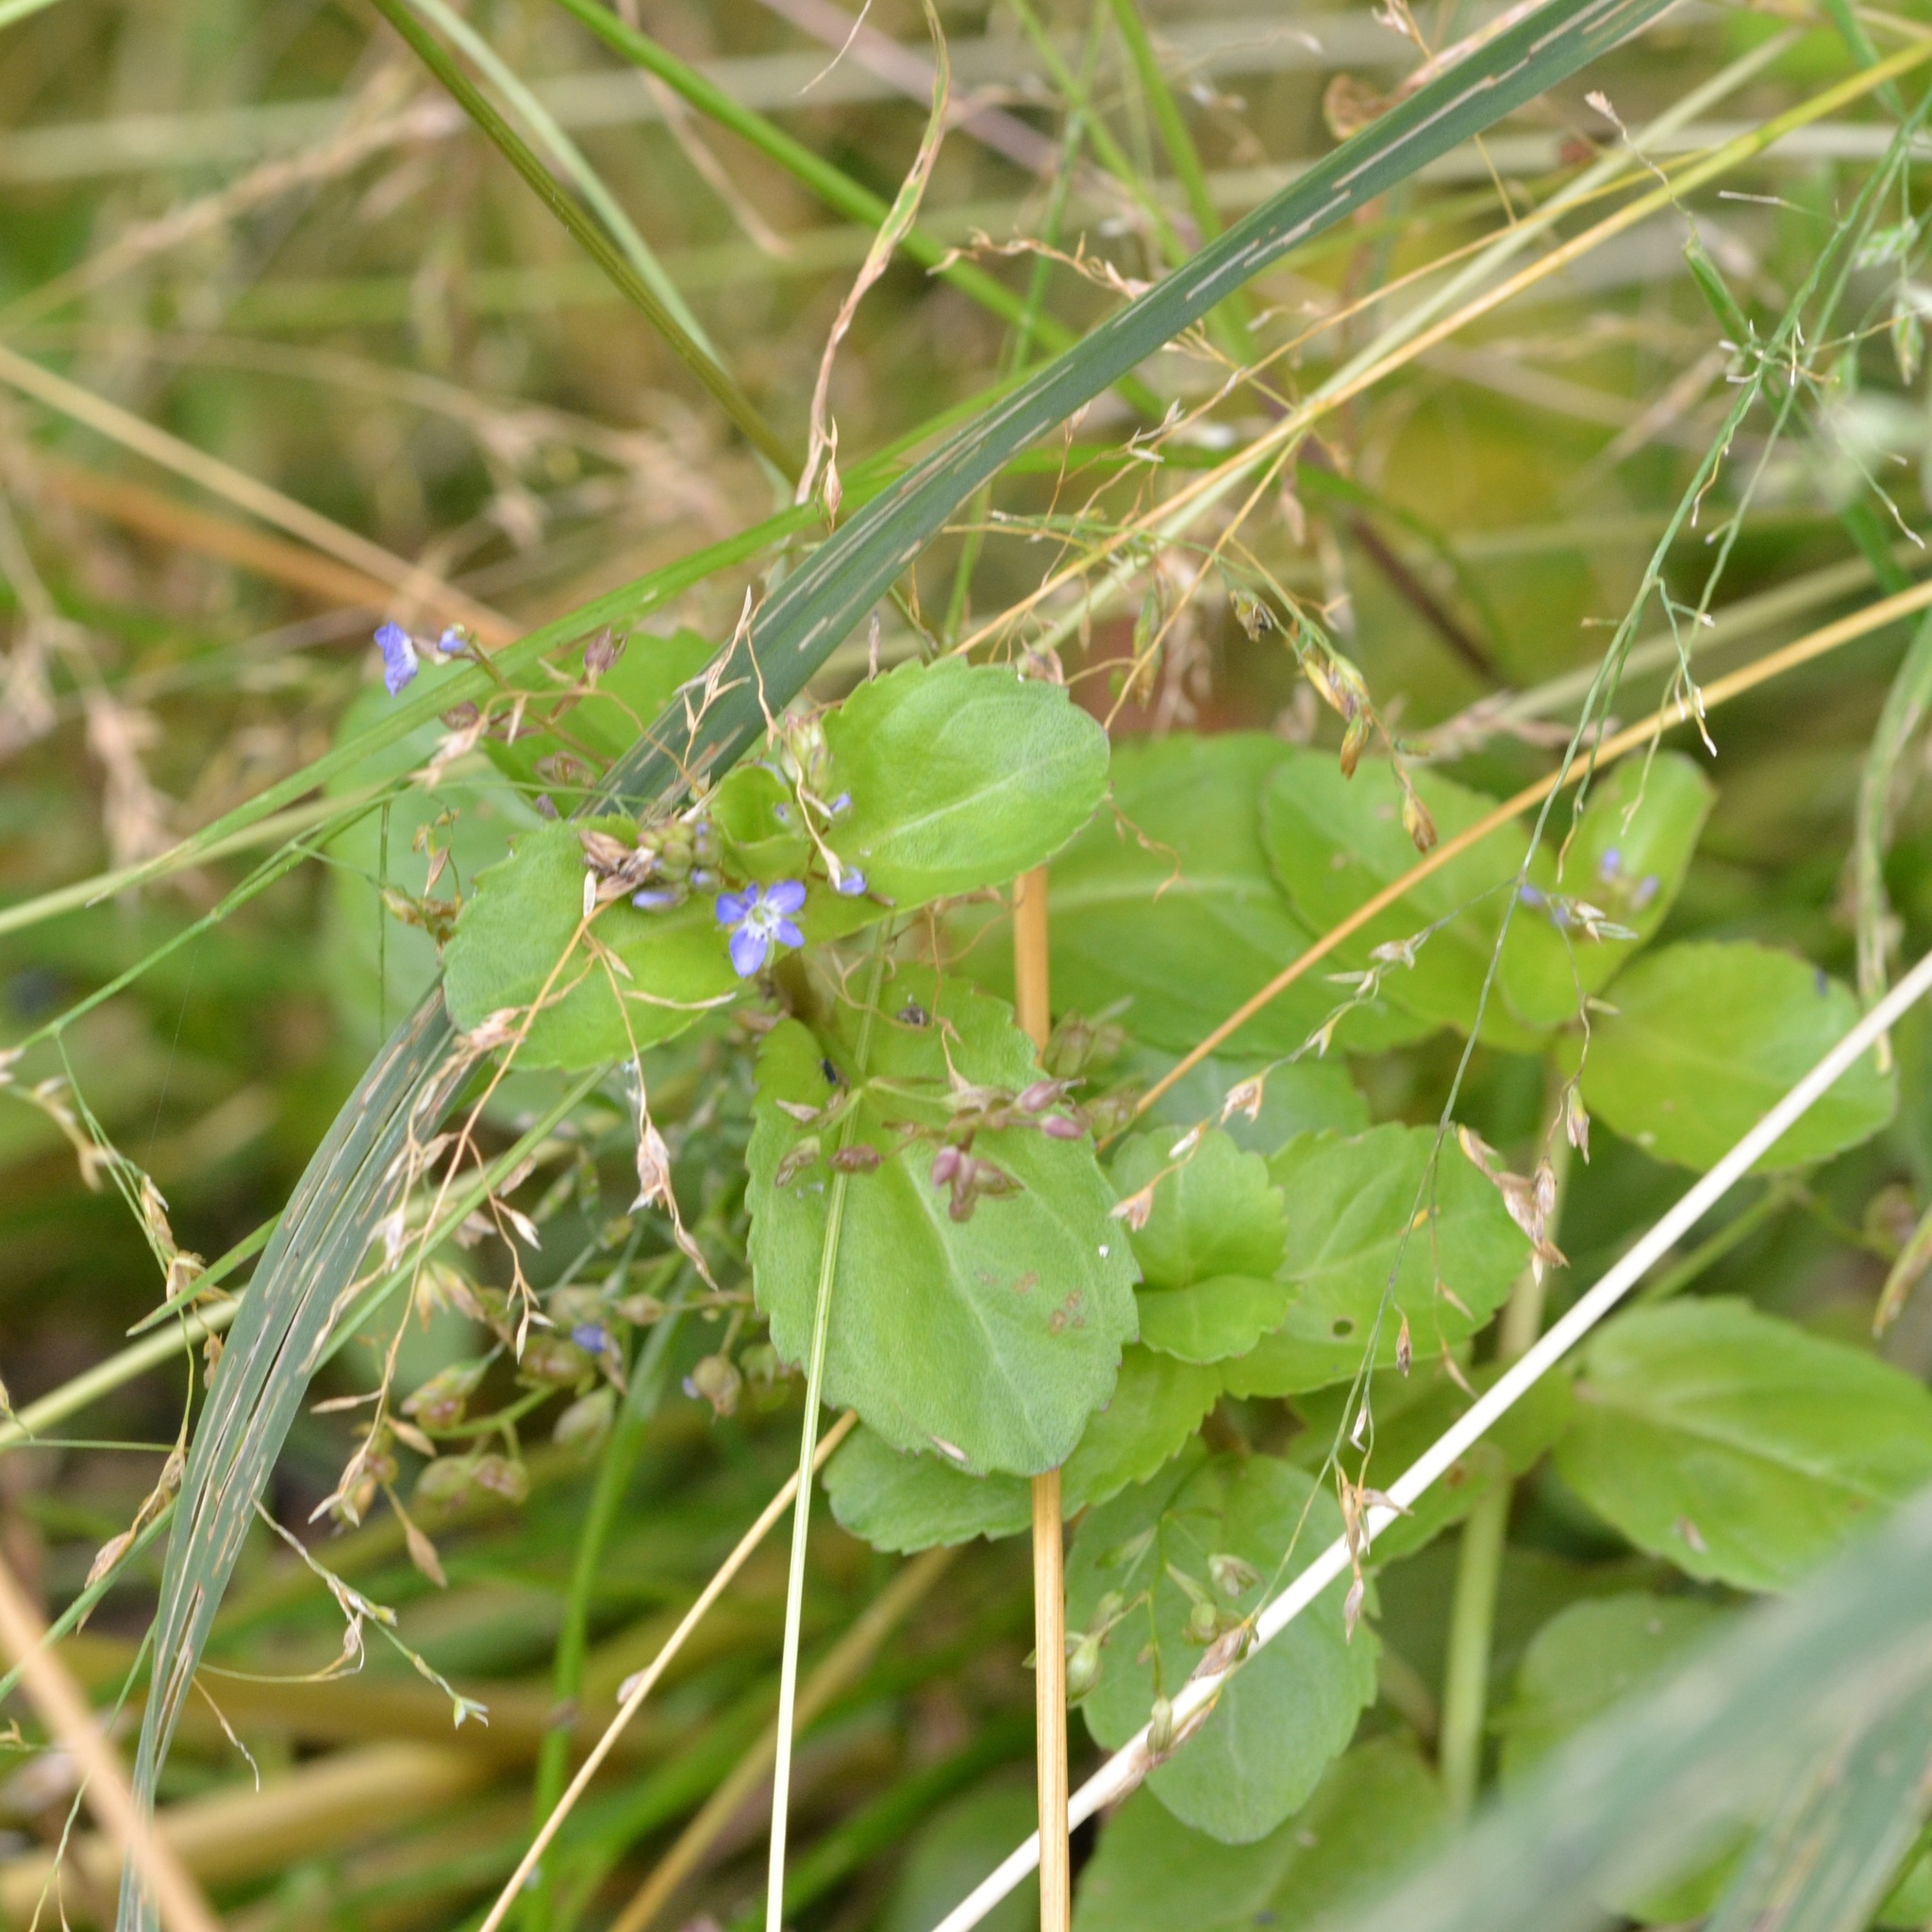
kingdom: Plantae
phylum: Tracheophyta
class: Magnoliopsida
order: Lamiales
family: Plantaginaceae
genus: Veronica
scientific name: Veronica beccabunga
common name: Brooklime
